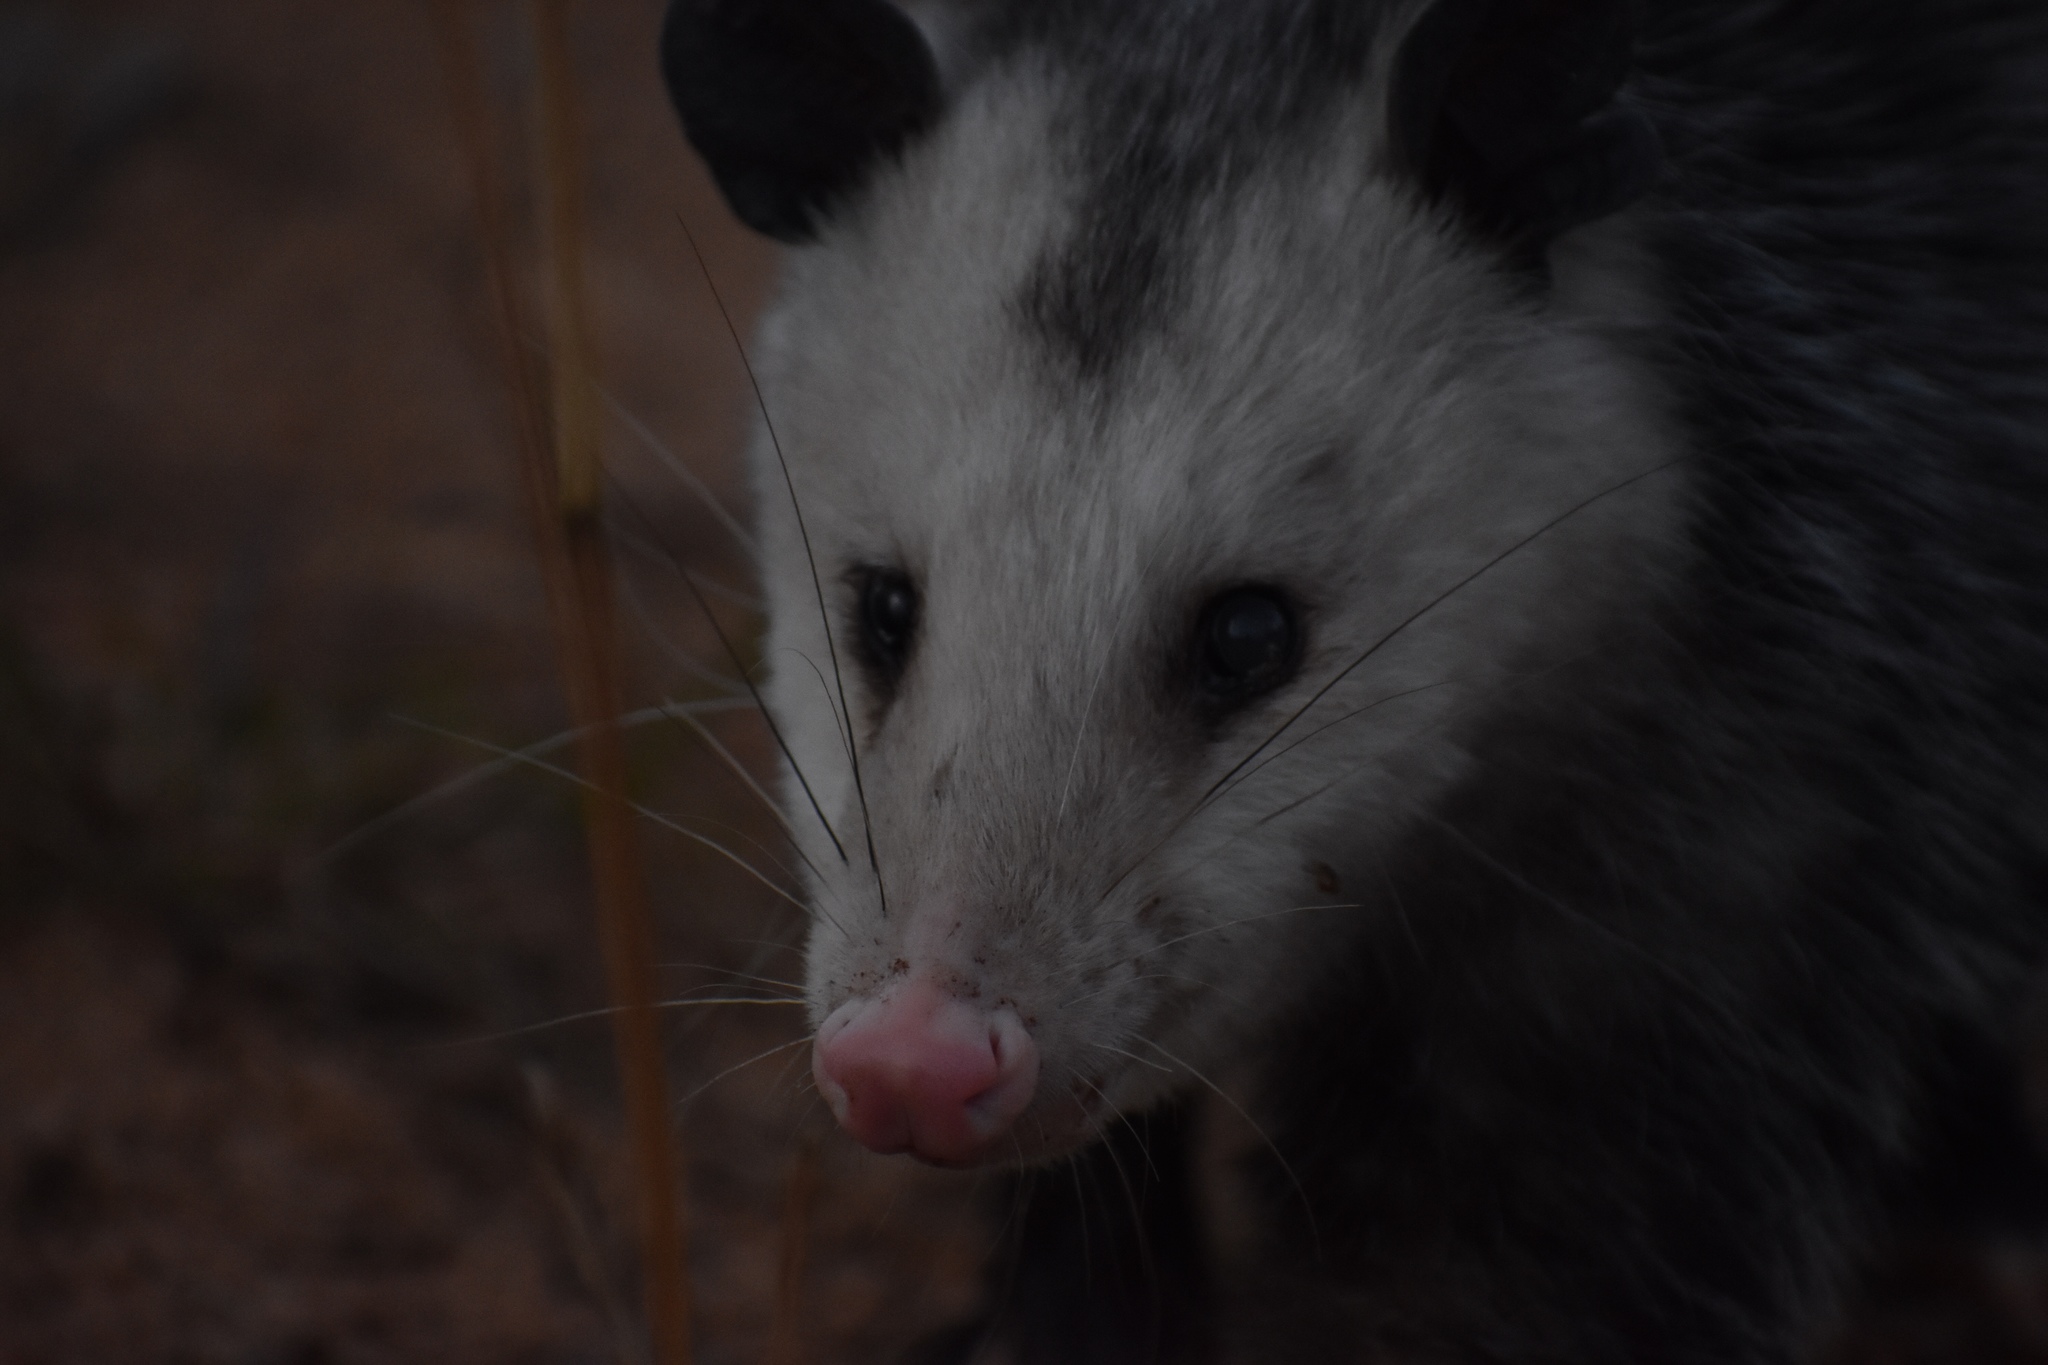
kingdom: Animalia
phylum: Chordata
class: Mammalia
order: Didelphimorphia
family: Didelphidae
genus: Didelphis
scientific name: Didelphis virginiana
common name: Virginia opossum
